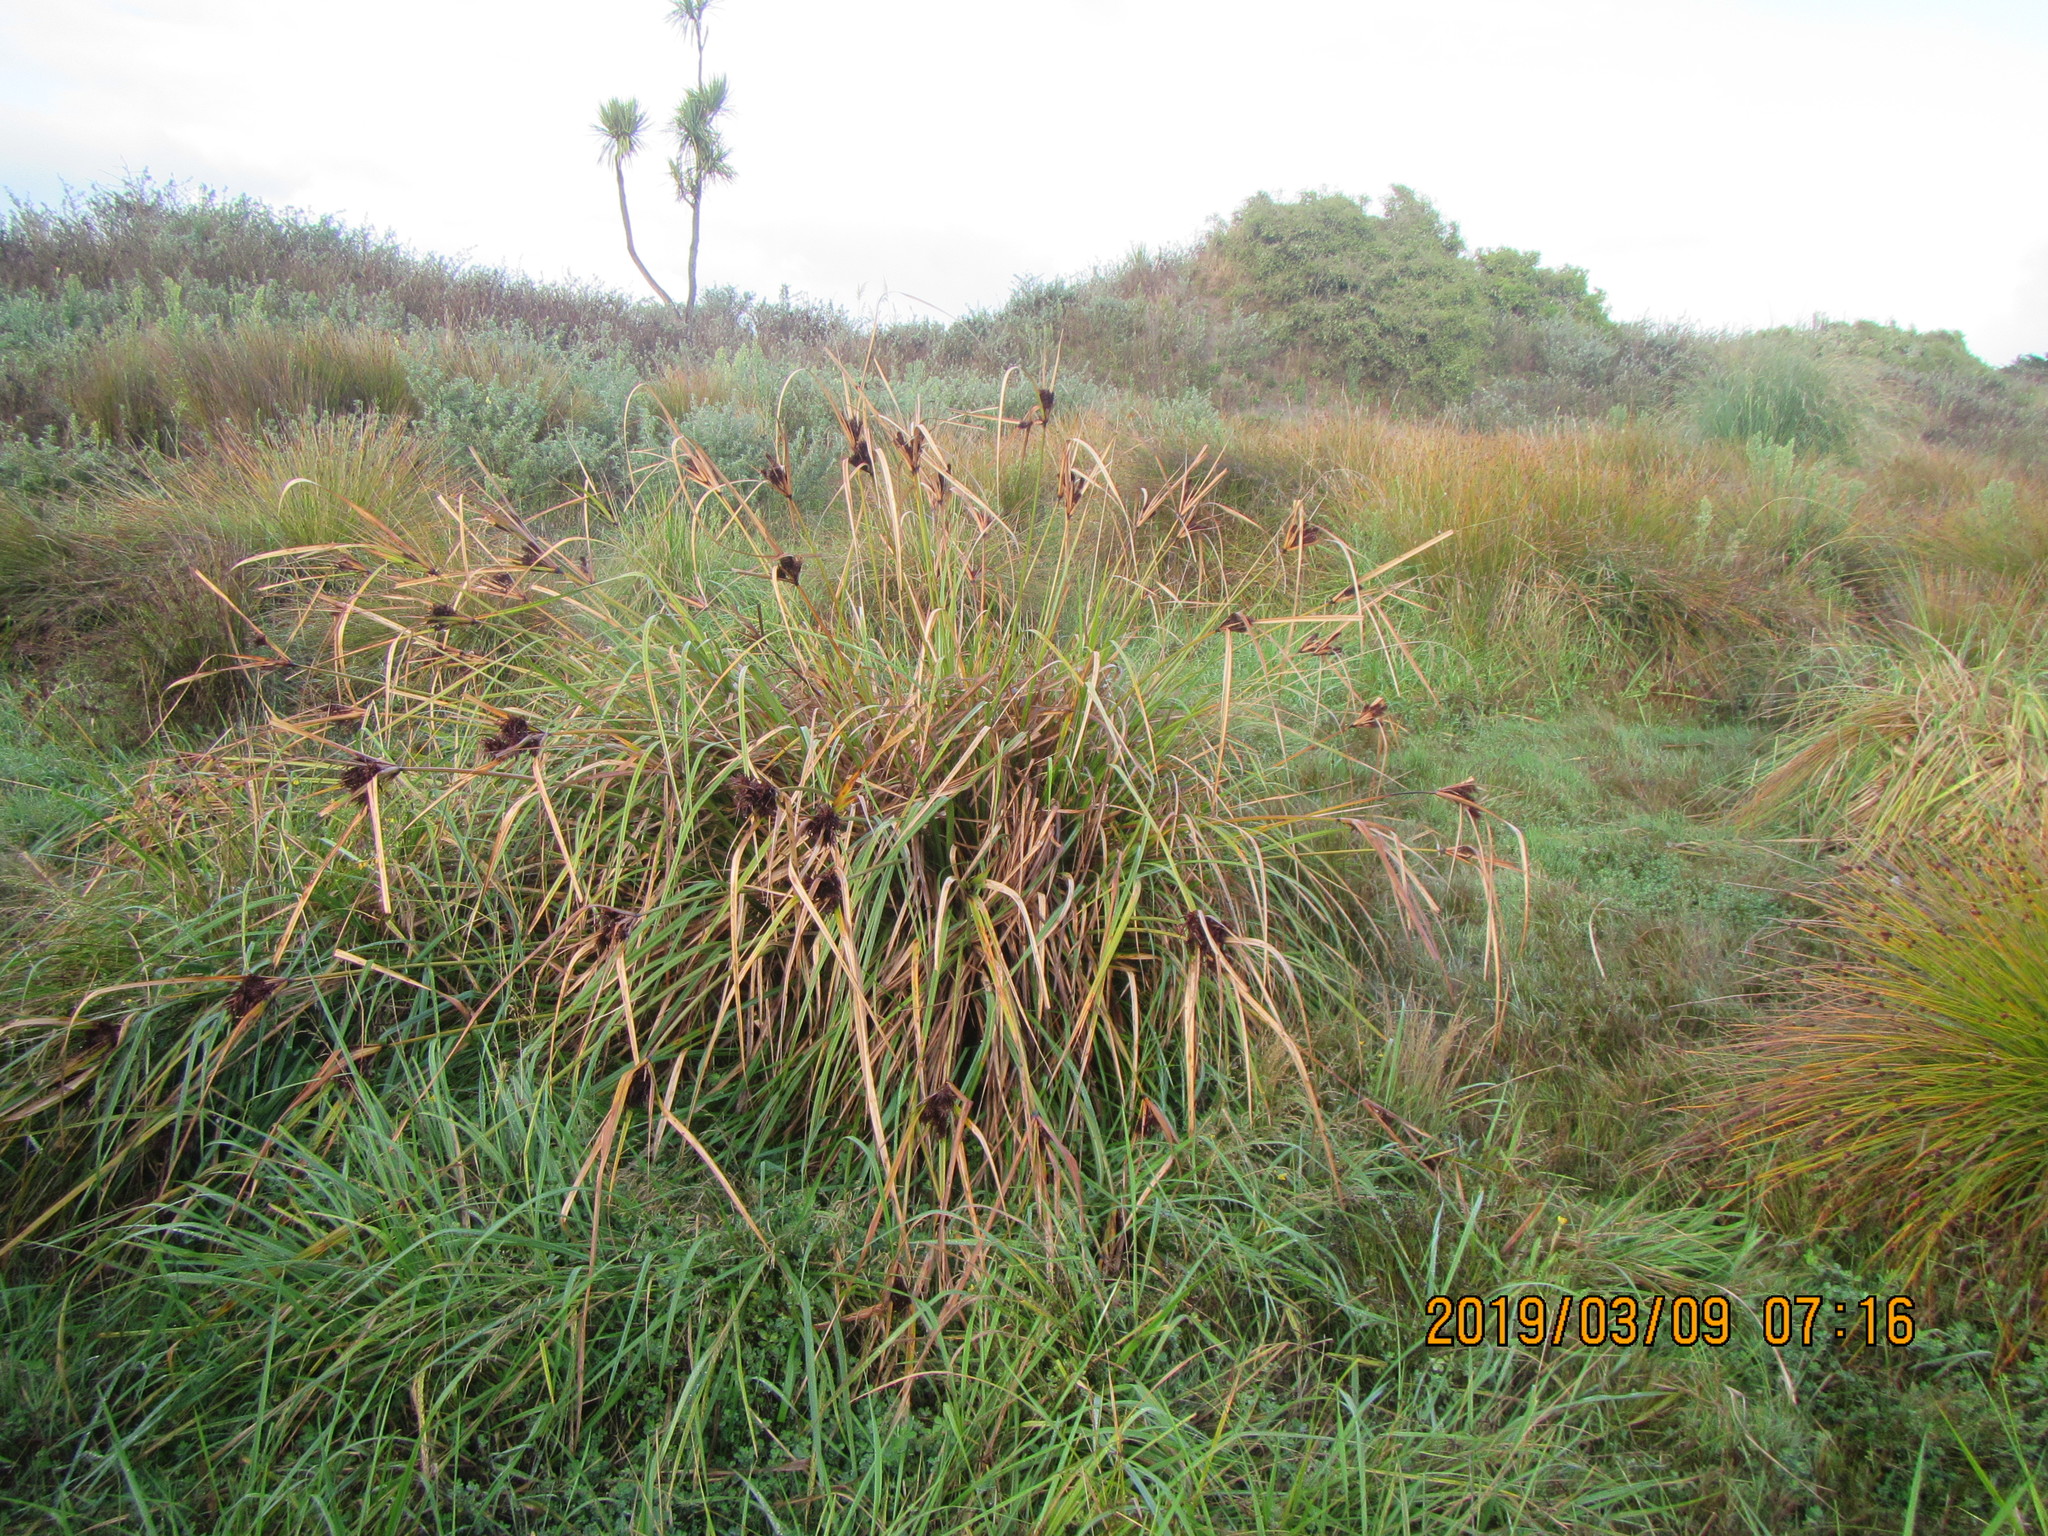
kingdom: Plantae
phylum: Tracheophyta
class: Liliopsida
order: Poales
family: Cyperaceae
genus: Cyperus
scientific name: Cyperus ustulatus
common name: Giant umbrella-sedge
